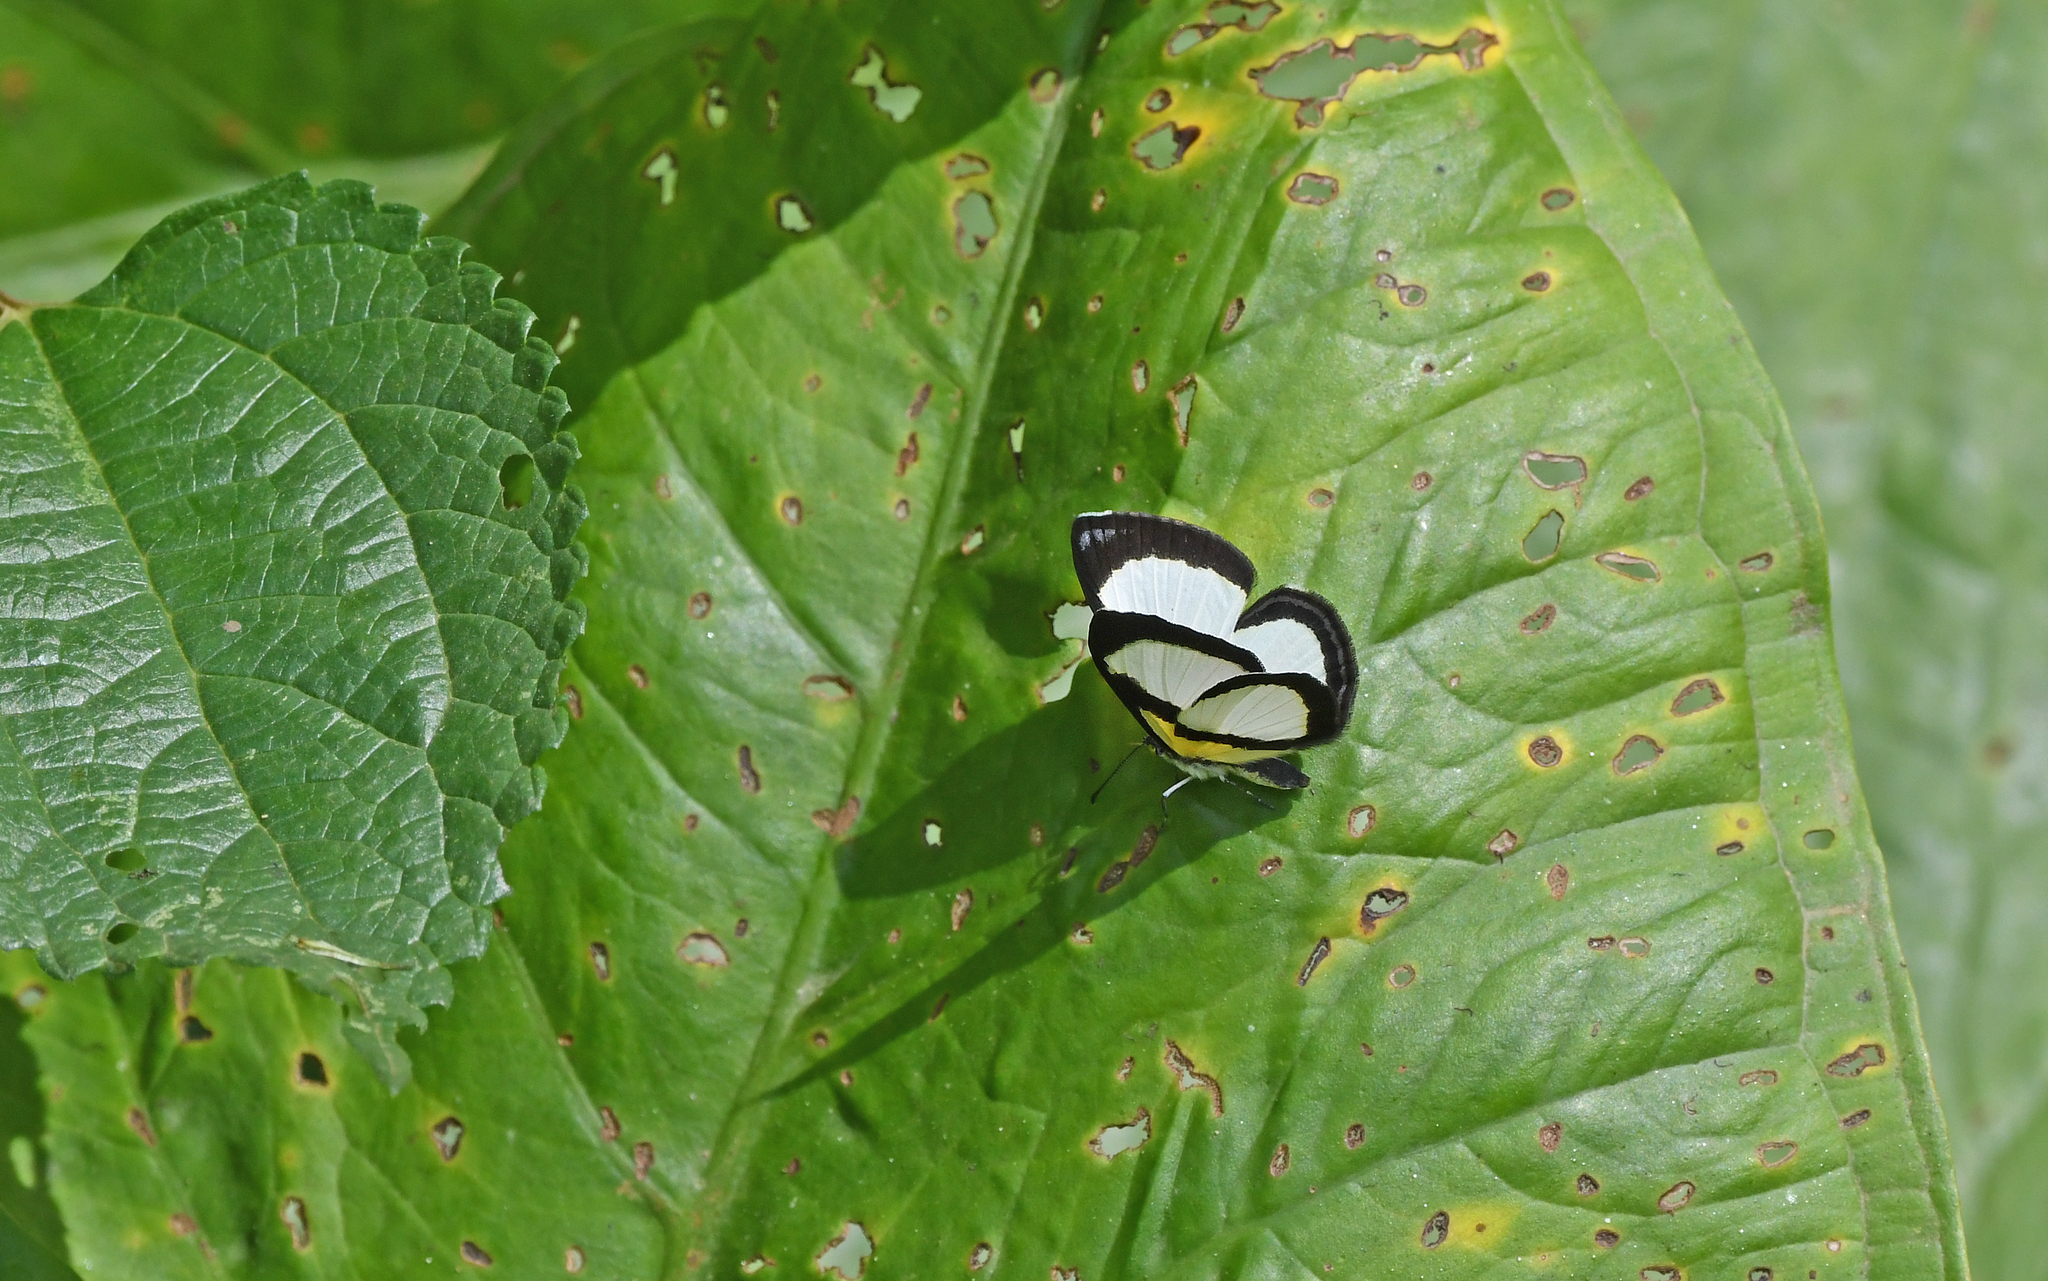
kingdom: Animalia
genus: Baeotis
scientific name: Baeotis felix
